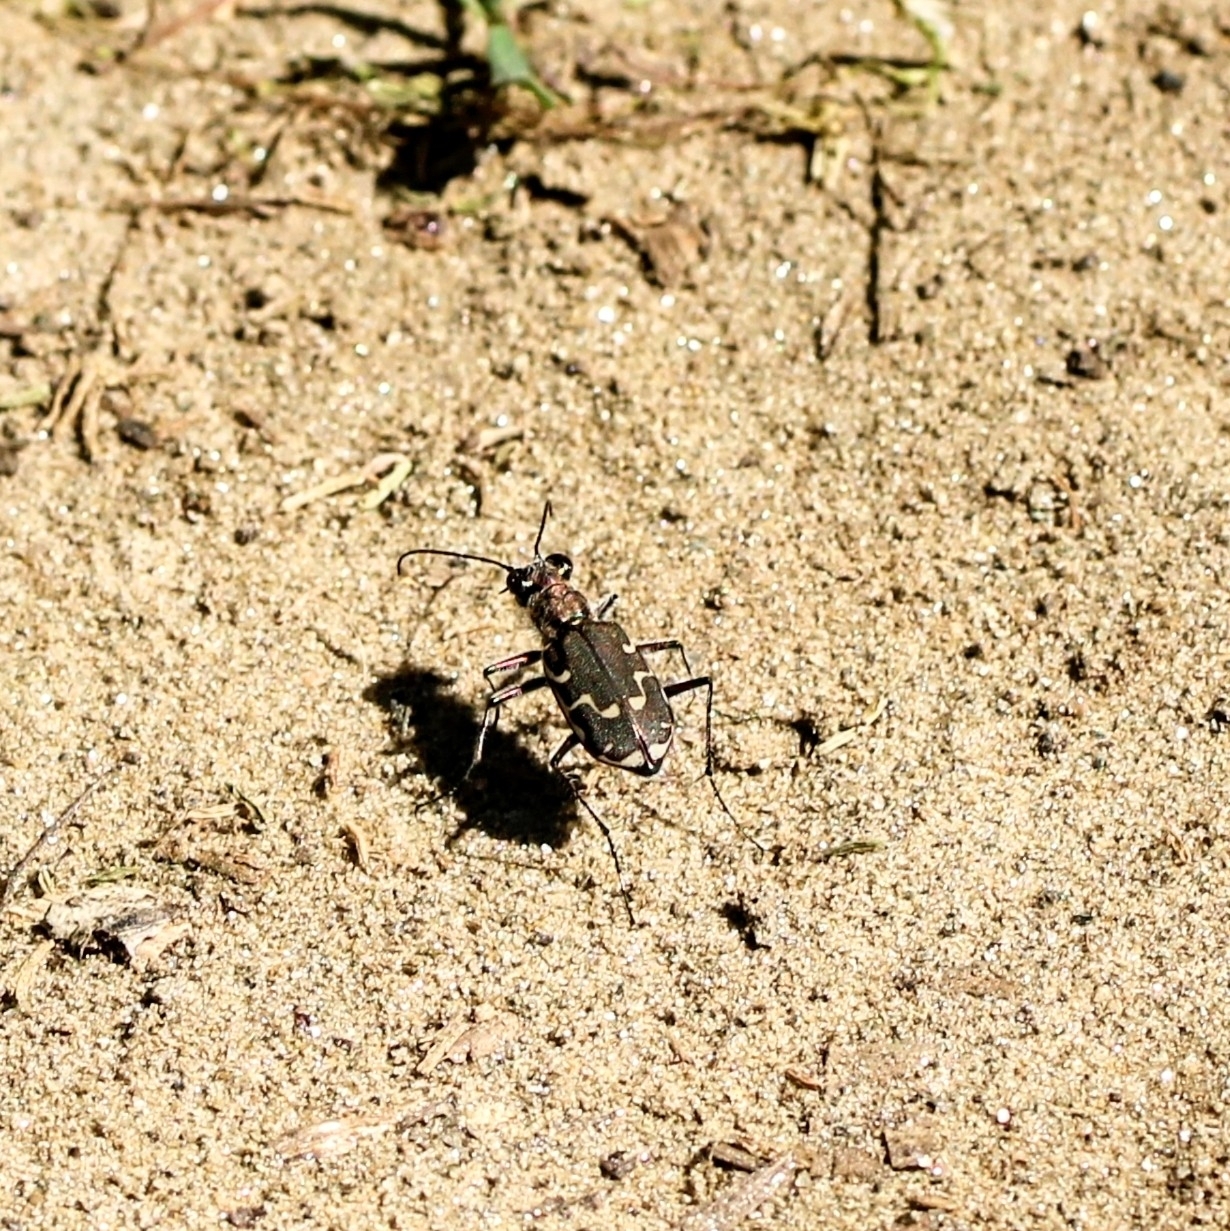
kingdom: Animalia
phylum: Arthropoda
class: Insecta
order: Coleoptera
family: Carabidae
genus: Cicindela
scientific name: Cicindela repanda
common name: Bronzed tiger beetle
